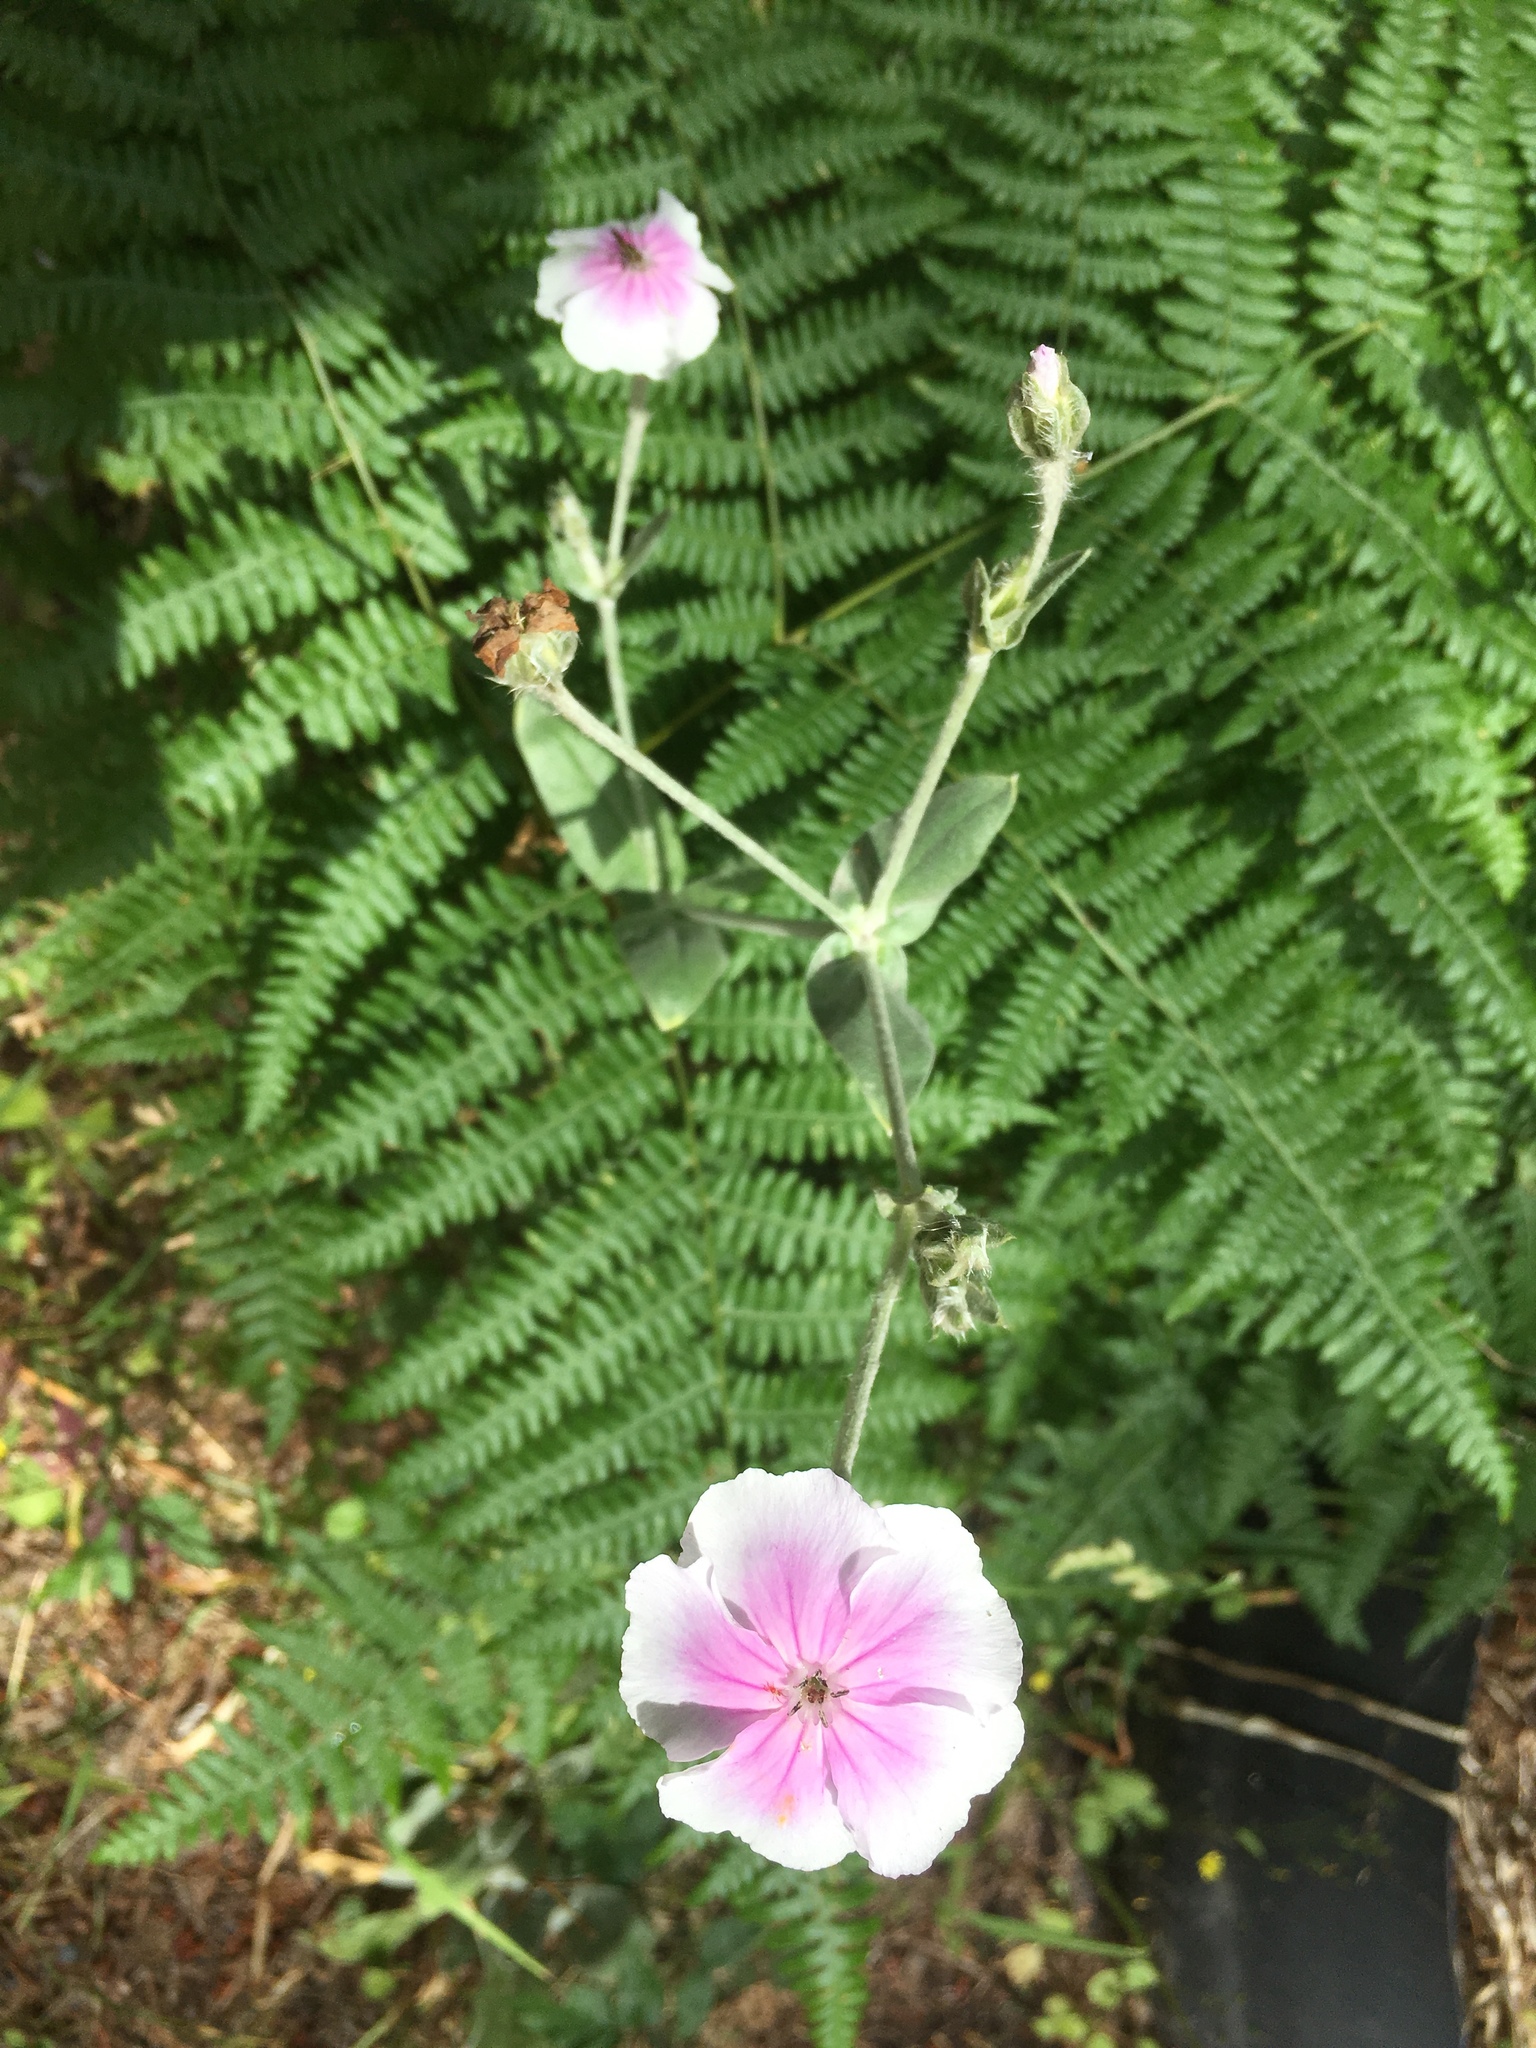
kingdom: Plantae
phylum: Tracheophyta
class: Magnoliopsida
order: Caryophyllales
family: Caryophyllaceae
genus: Silene
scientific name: Silene coronaria
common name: Rose campion
